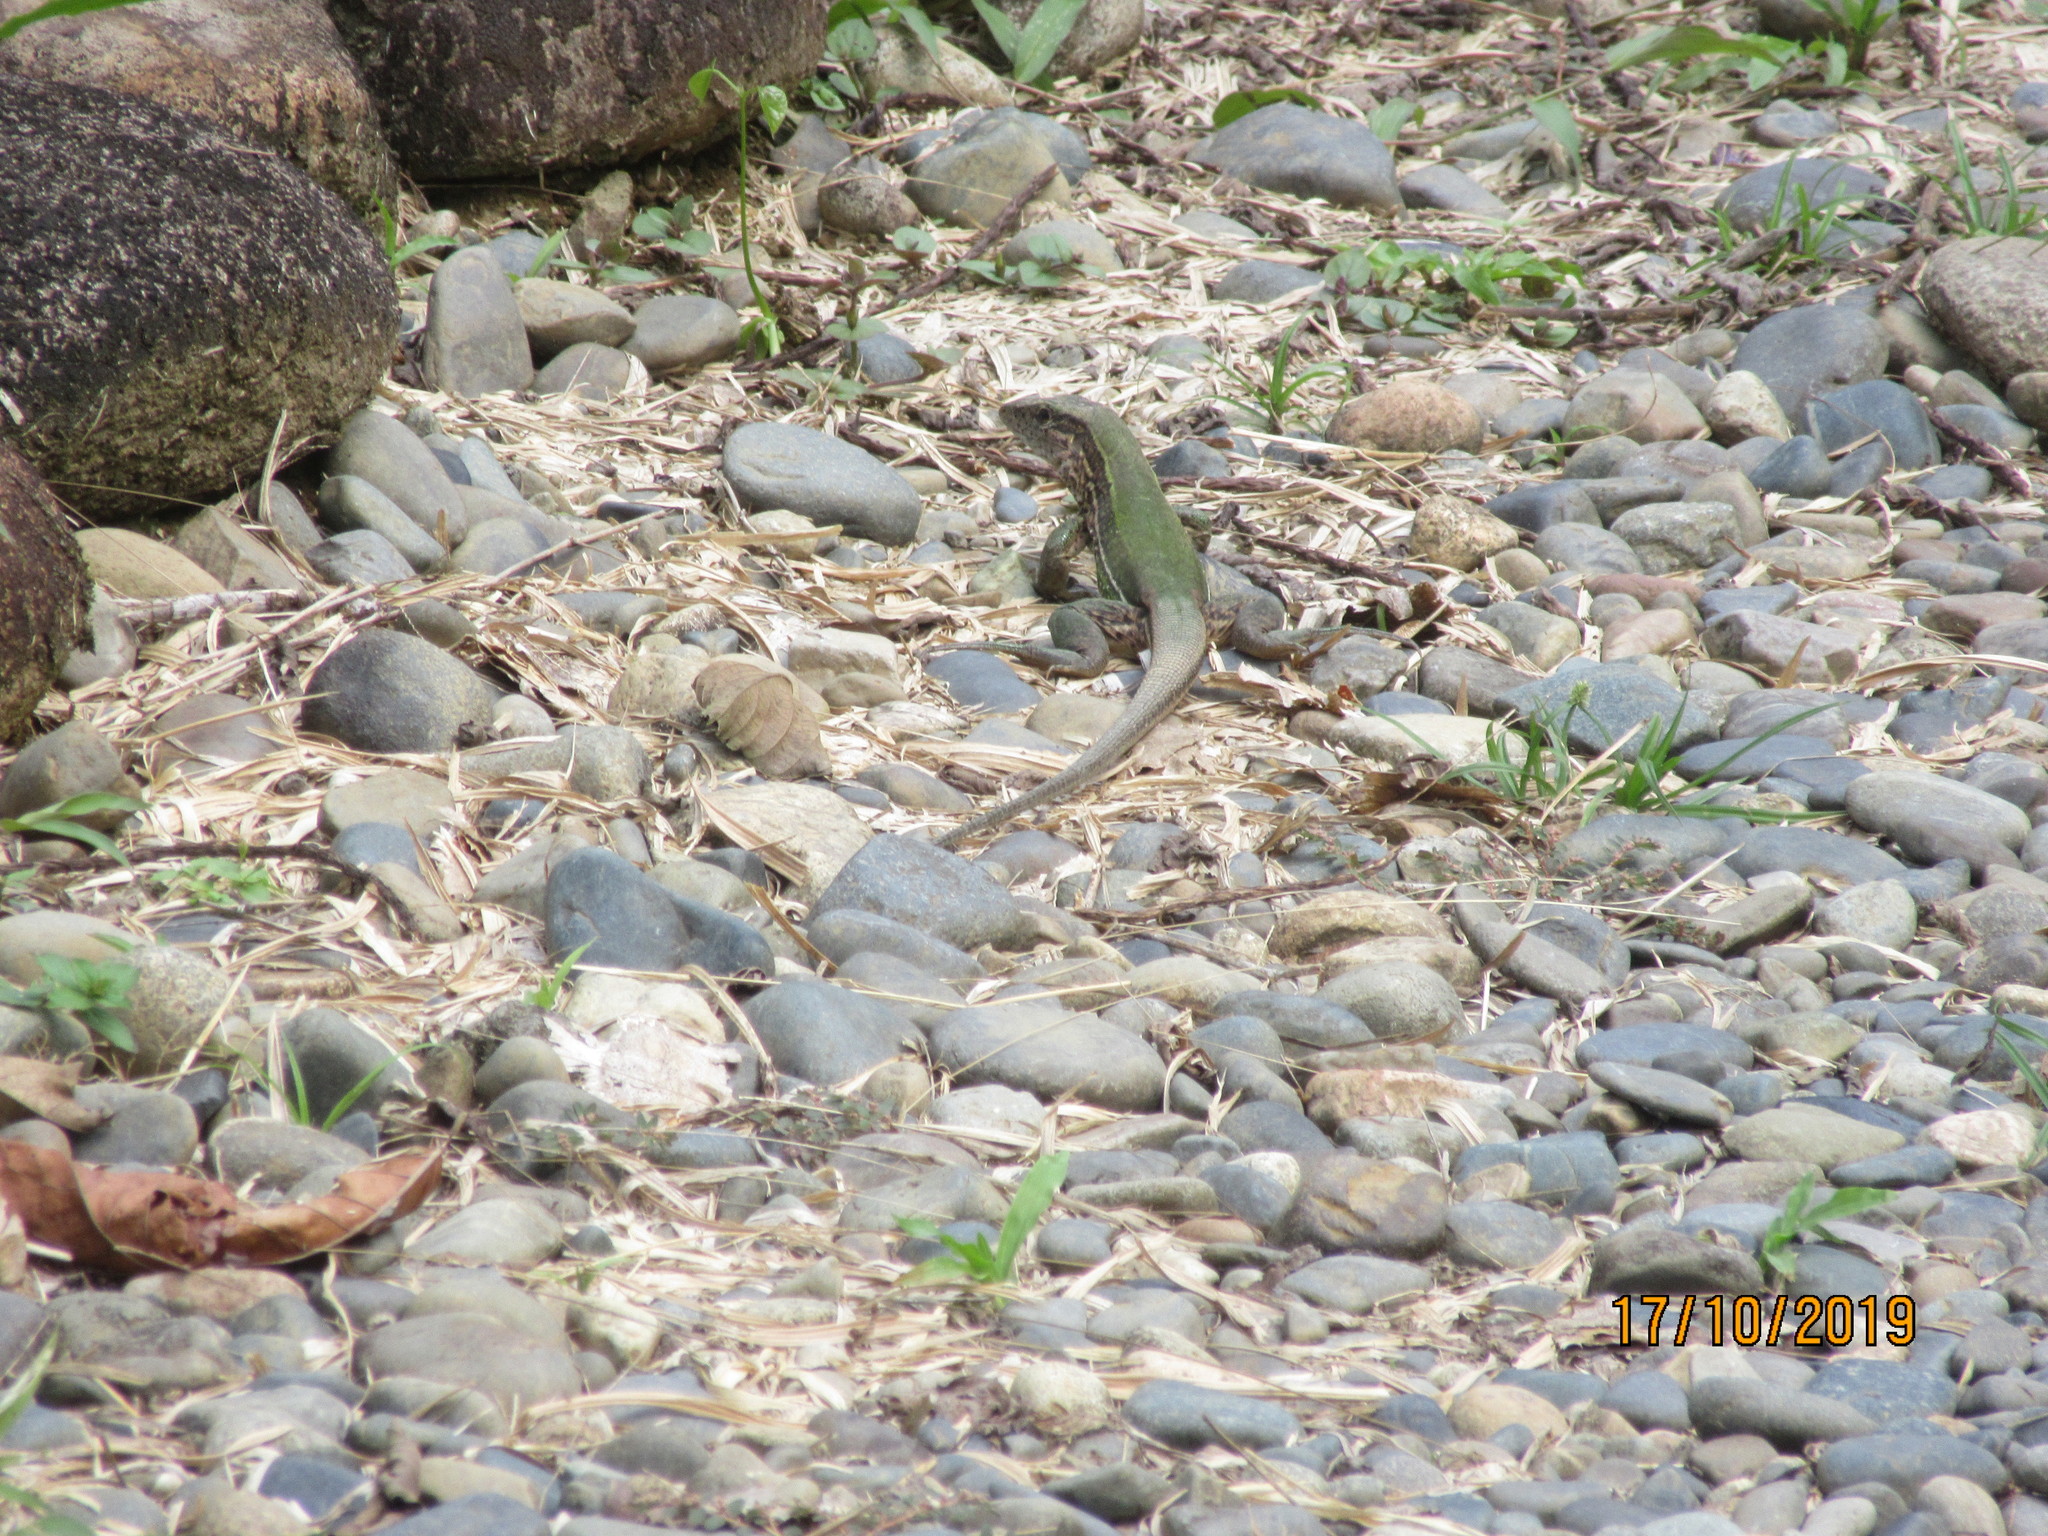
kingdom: Animalia
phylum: Chordata
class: Squamata
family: Teiidae
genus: Ameiva
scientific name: Ameiva ameiva
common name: Giant ameiva
